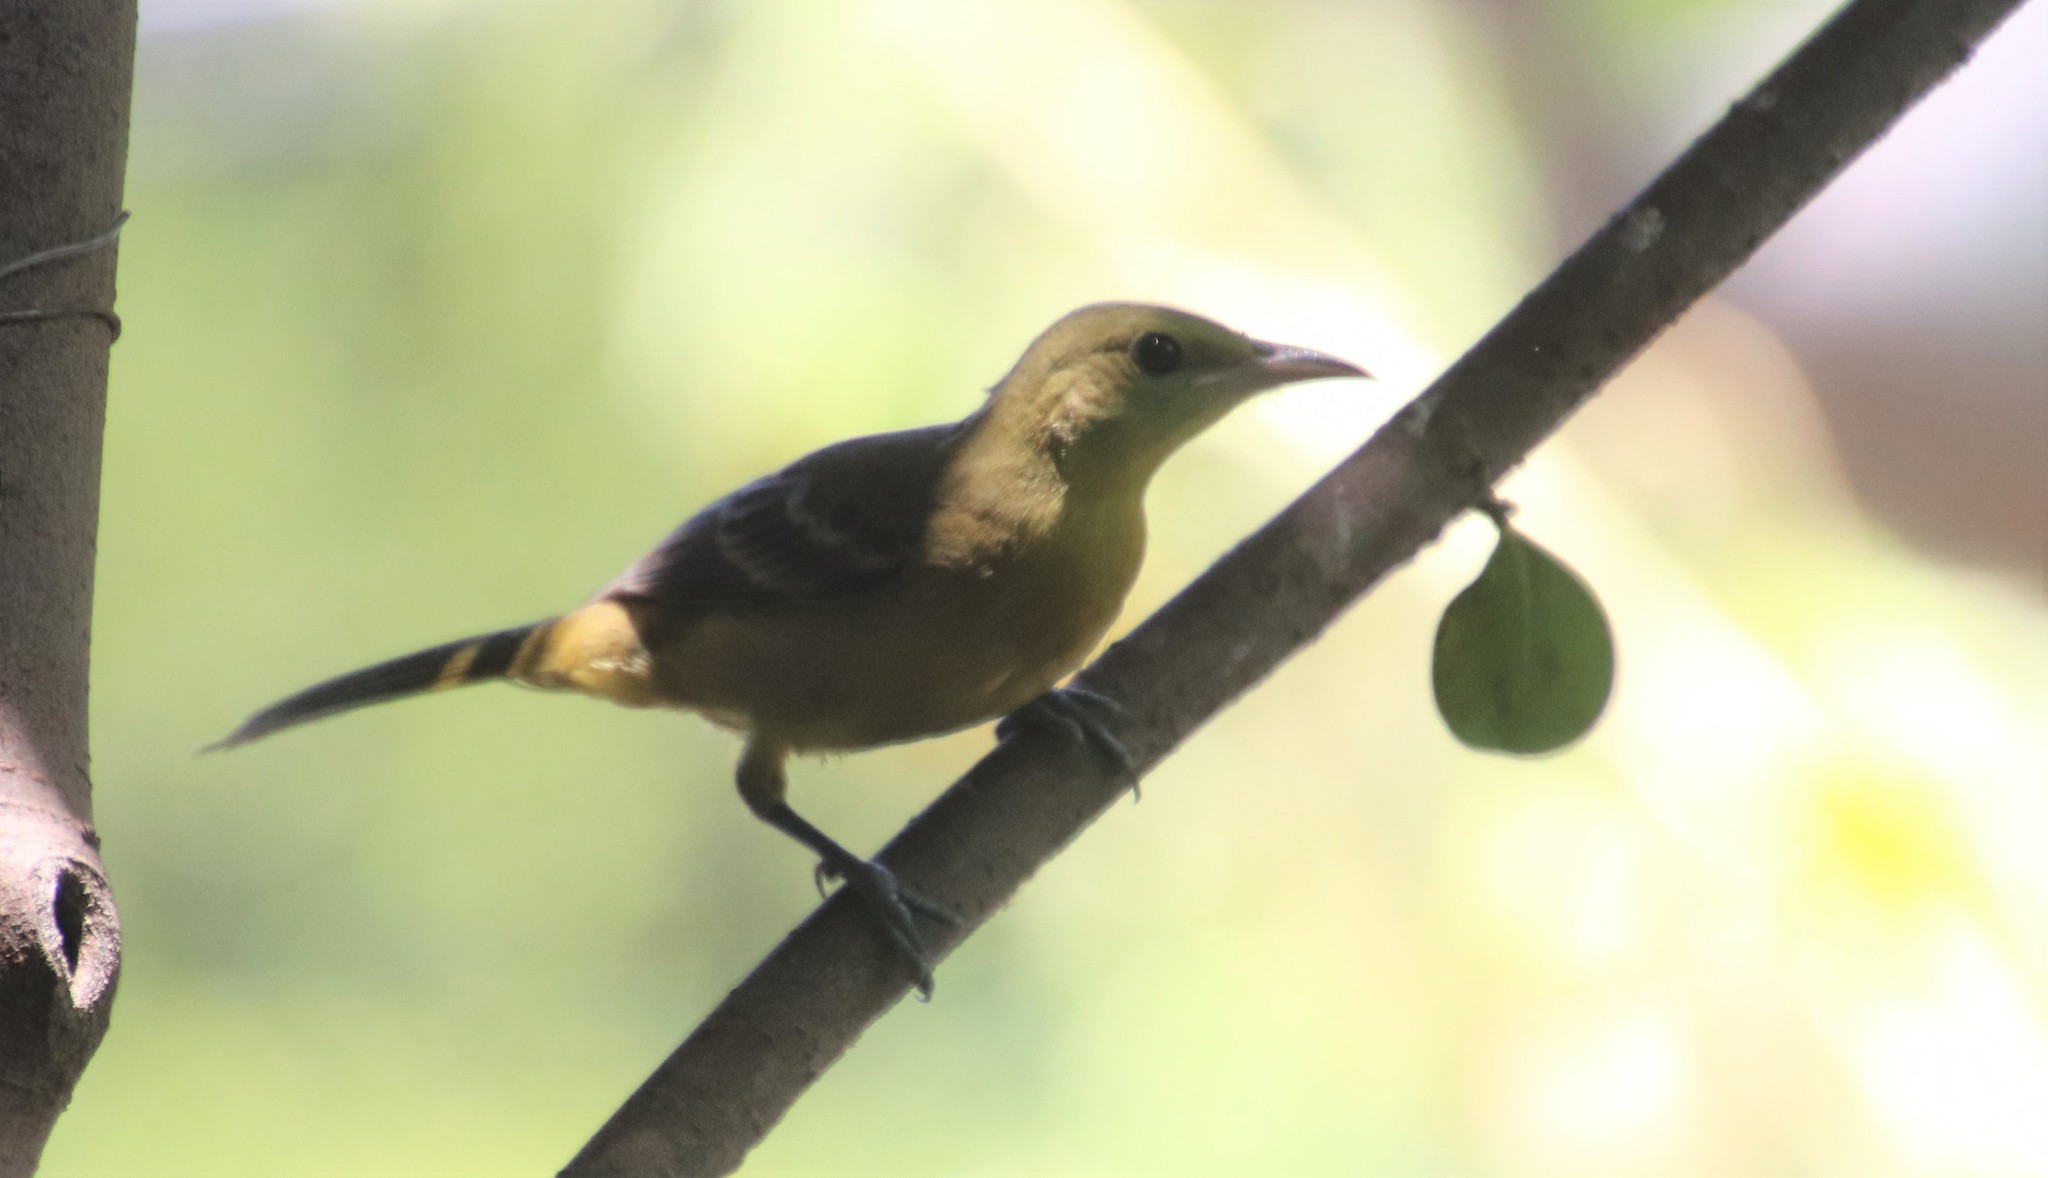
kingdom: Animalia
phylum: Chordata
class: Aves
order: Passeriformes
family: Icteridae
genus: Icterus
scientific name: Icterus cucullatus
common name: Hooded oriole
